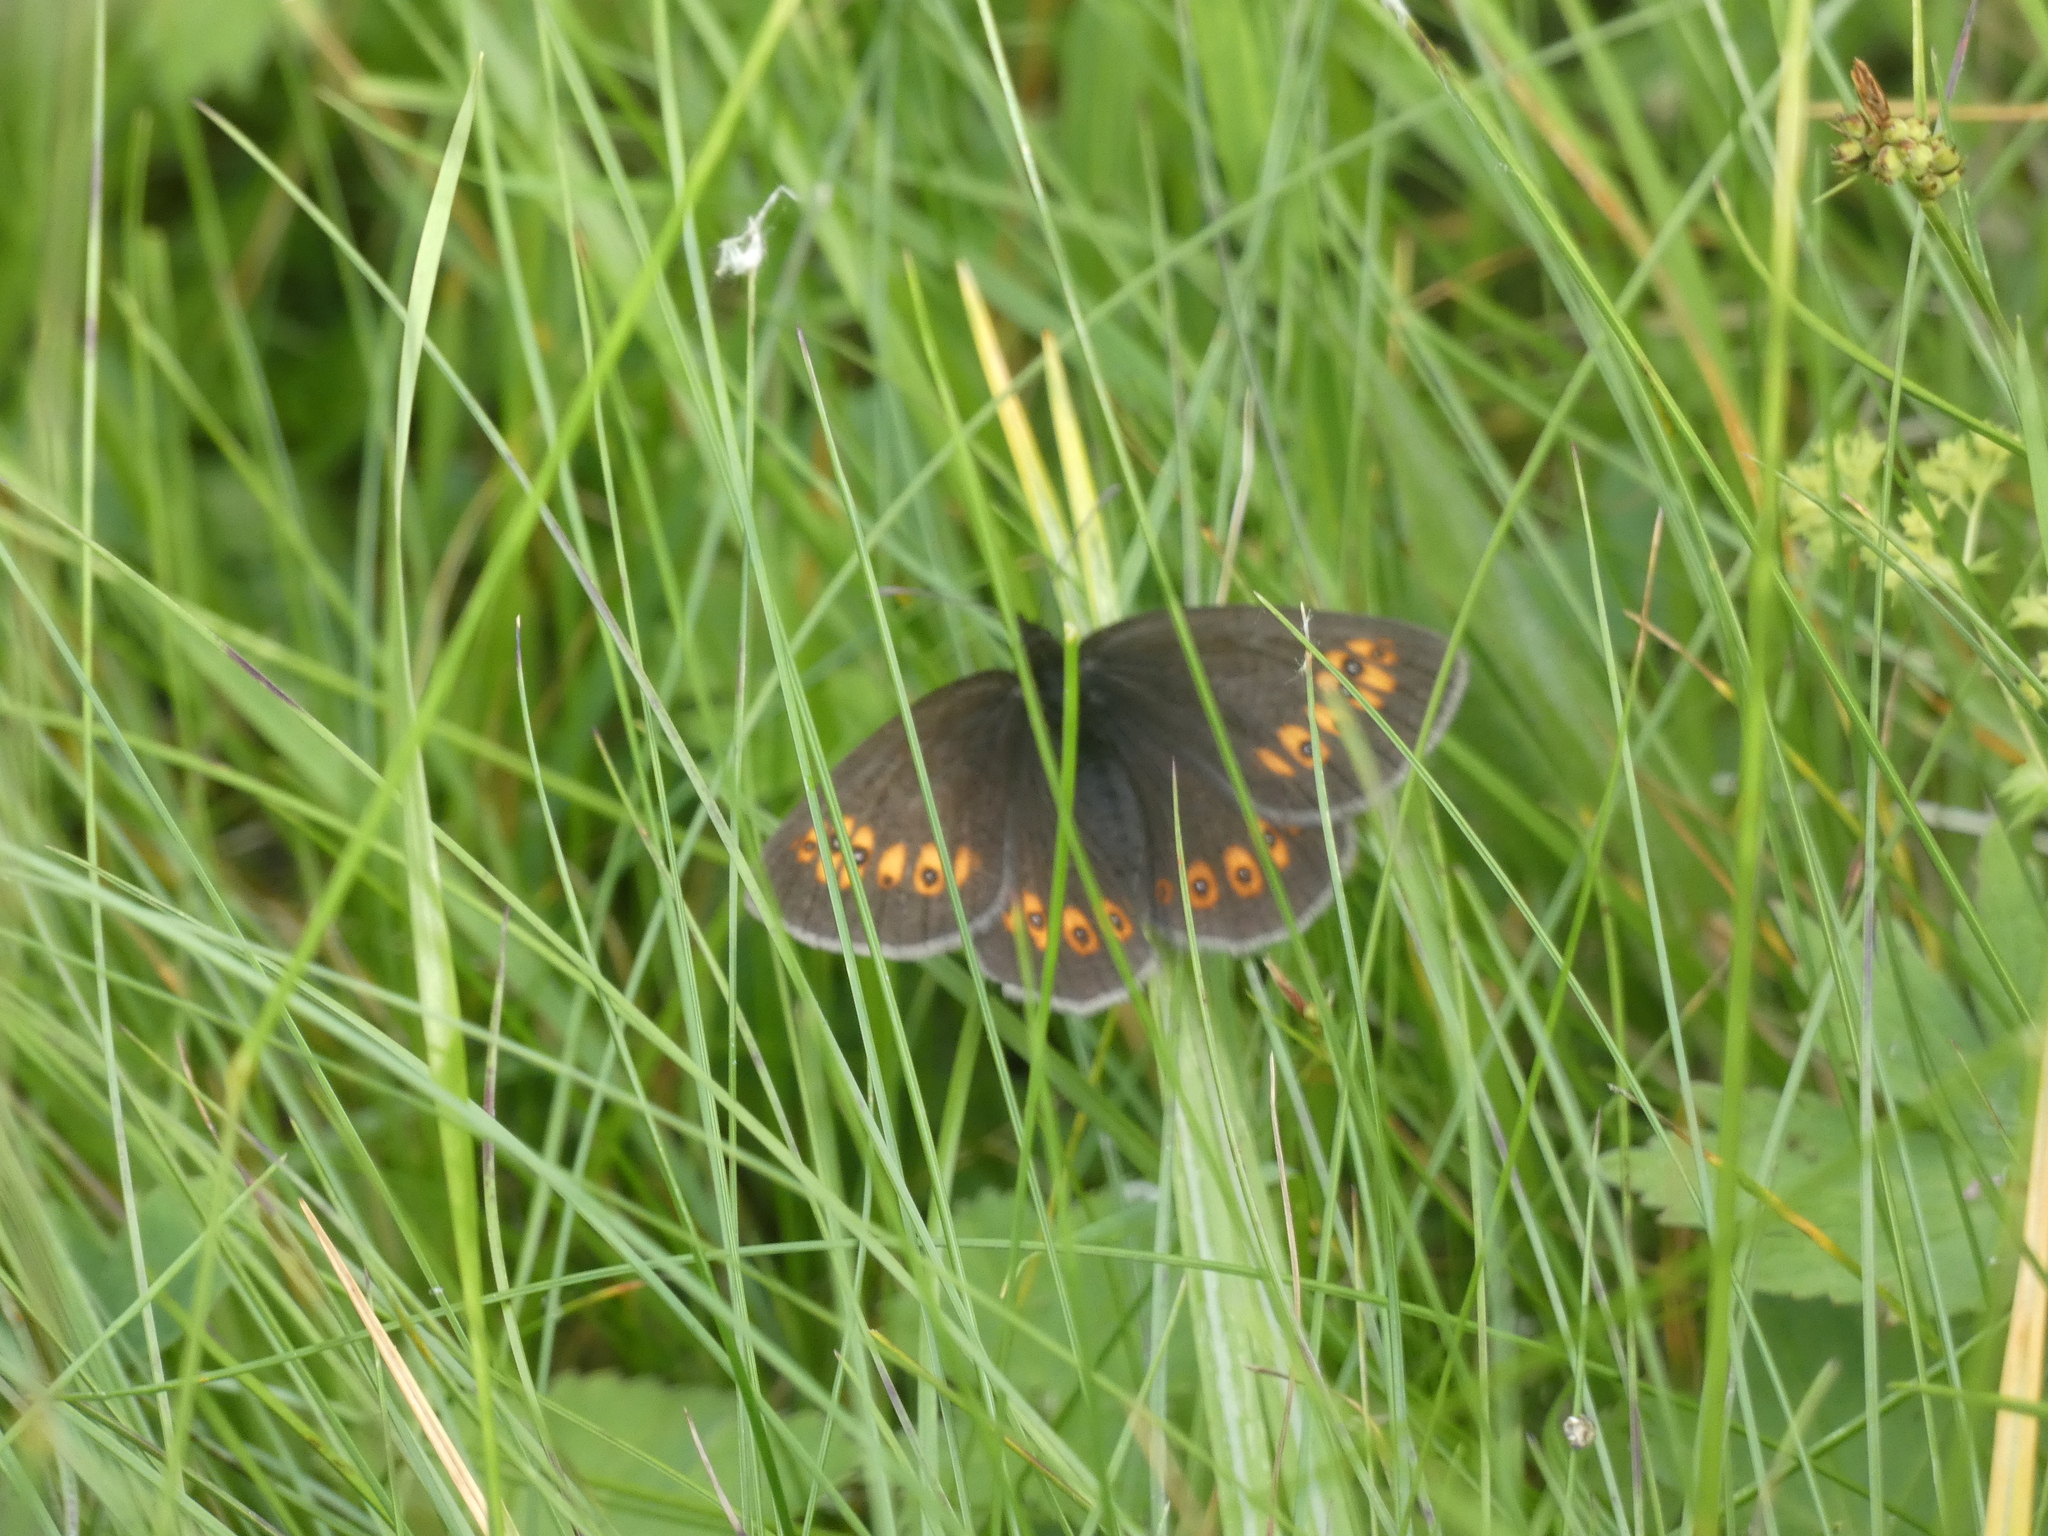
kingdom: Animalia
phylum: Arthropoda
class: Insecta
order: Lepidoptera
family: Nymphalidae
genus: Erebia
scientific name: Erebia alberganus
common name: Almond-eyed ringlet
